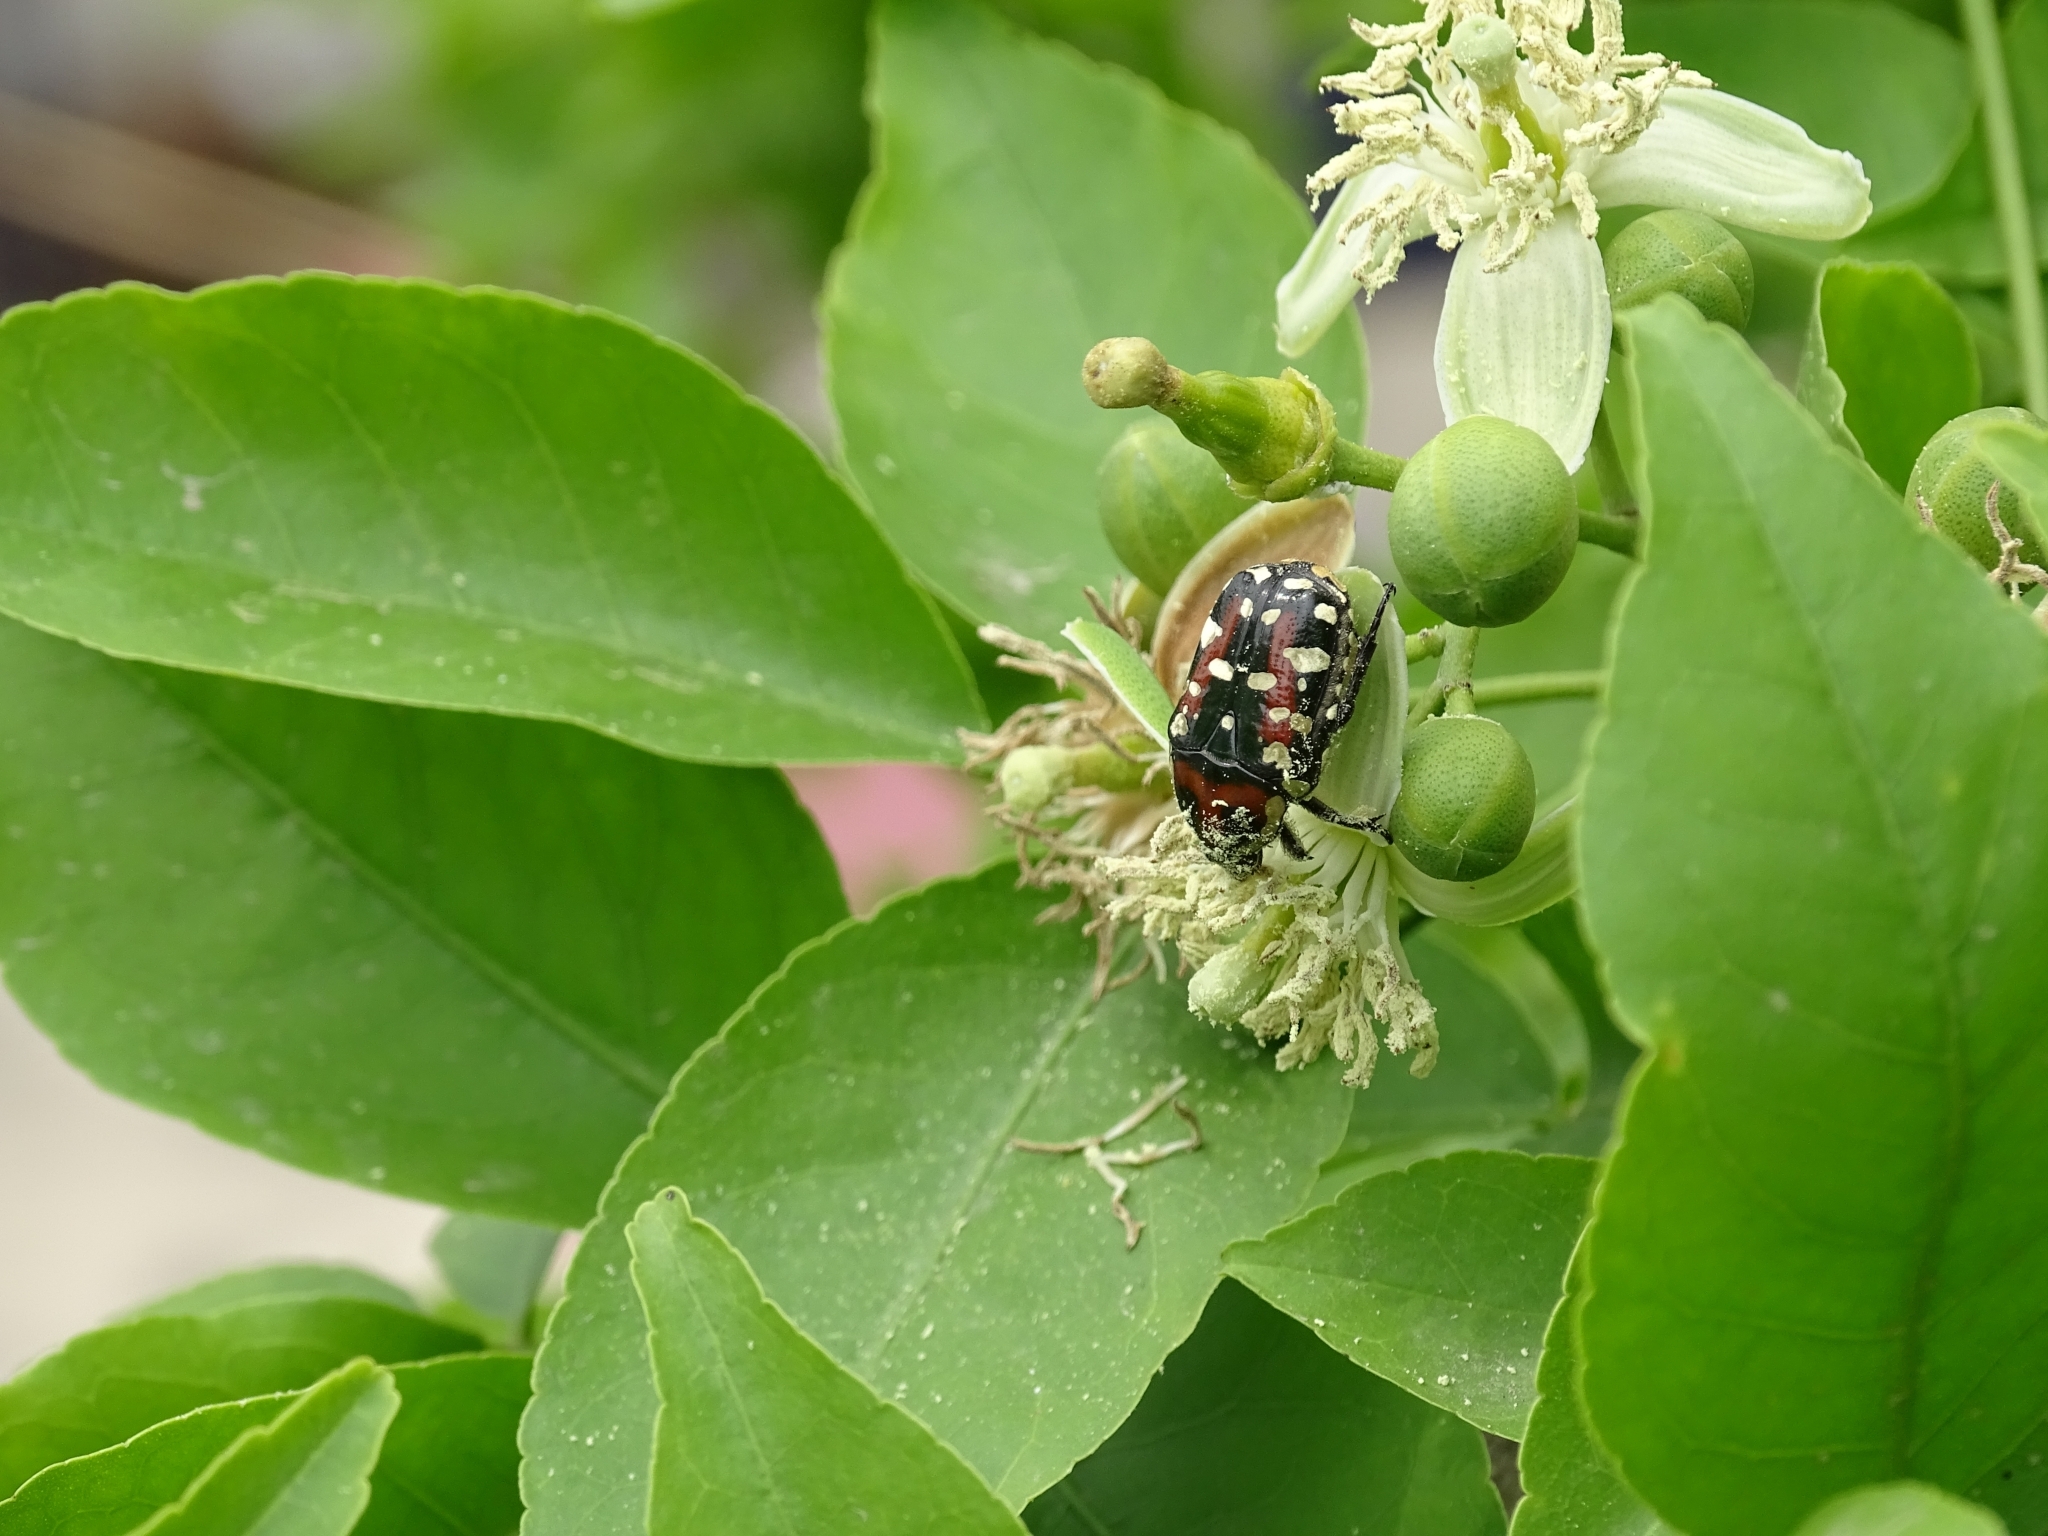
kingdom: Animalia
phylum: Arthropoda
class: Insecta
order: Coleoptera
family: Scarabaeidae
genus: Gametis
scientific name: Gametis versicolor
